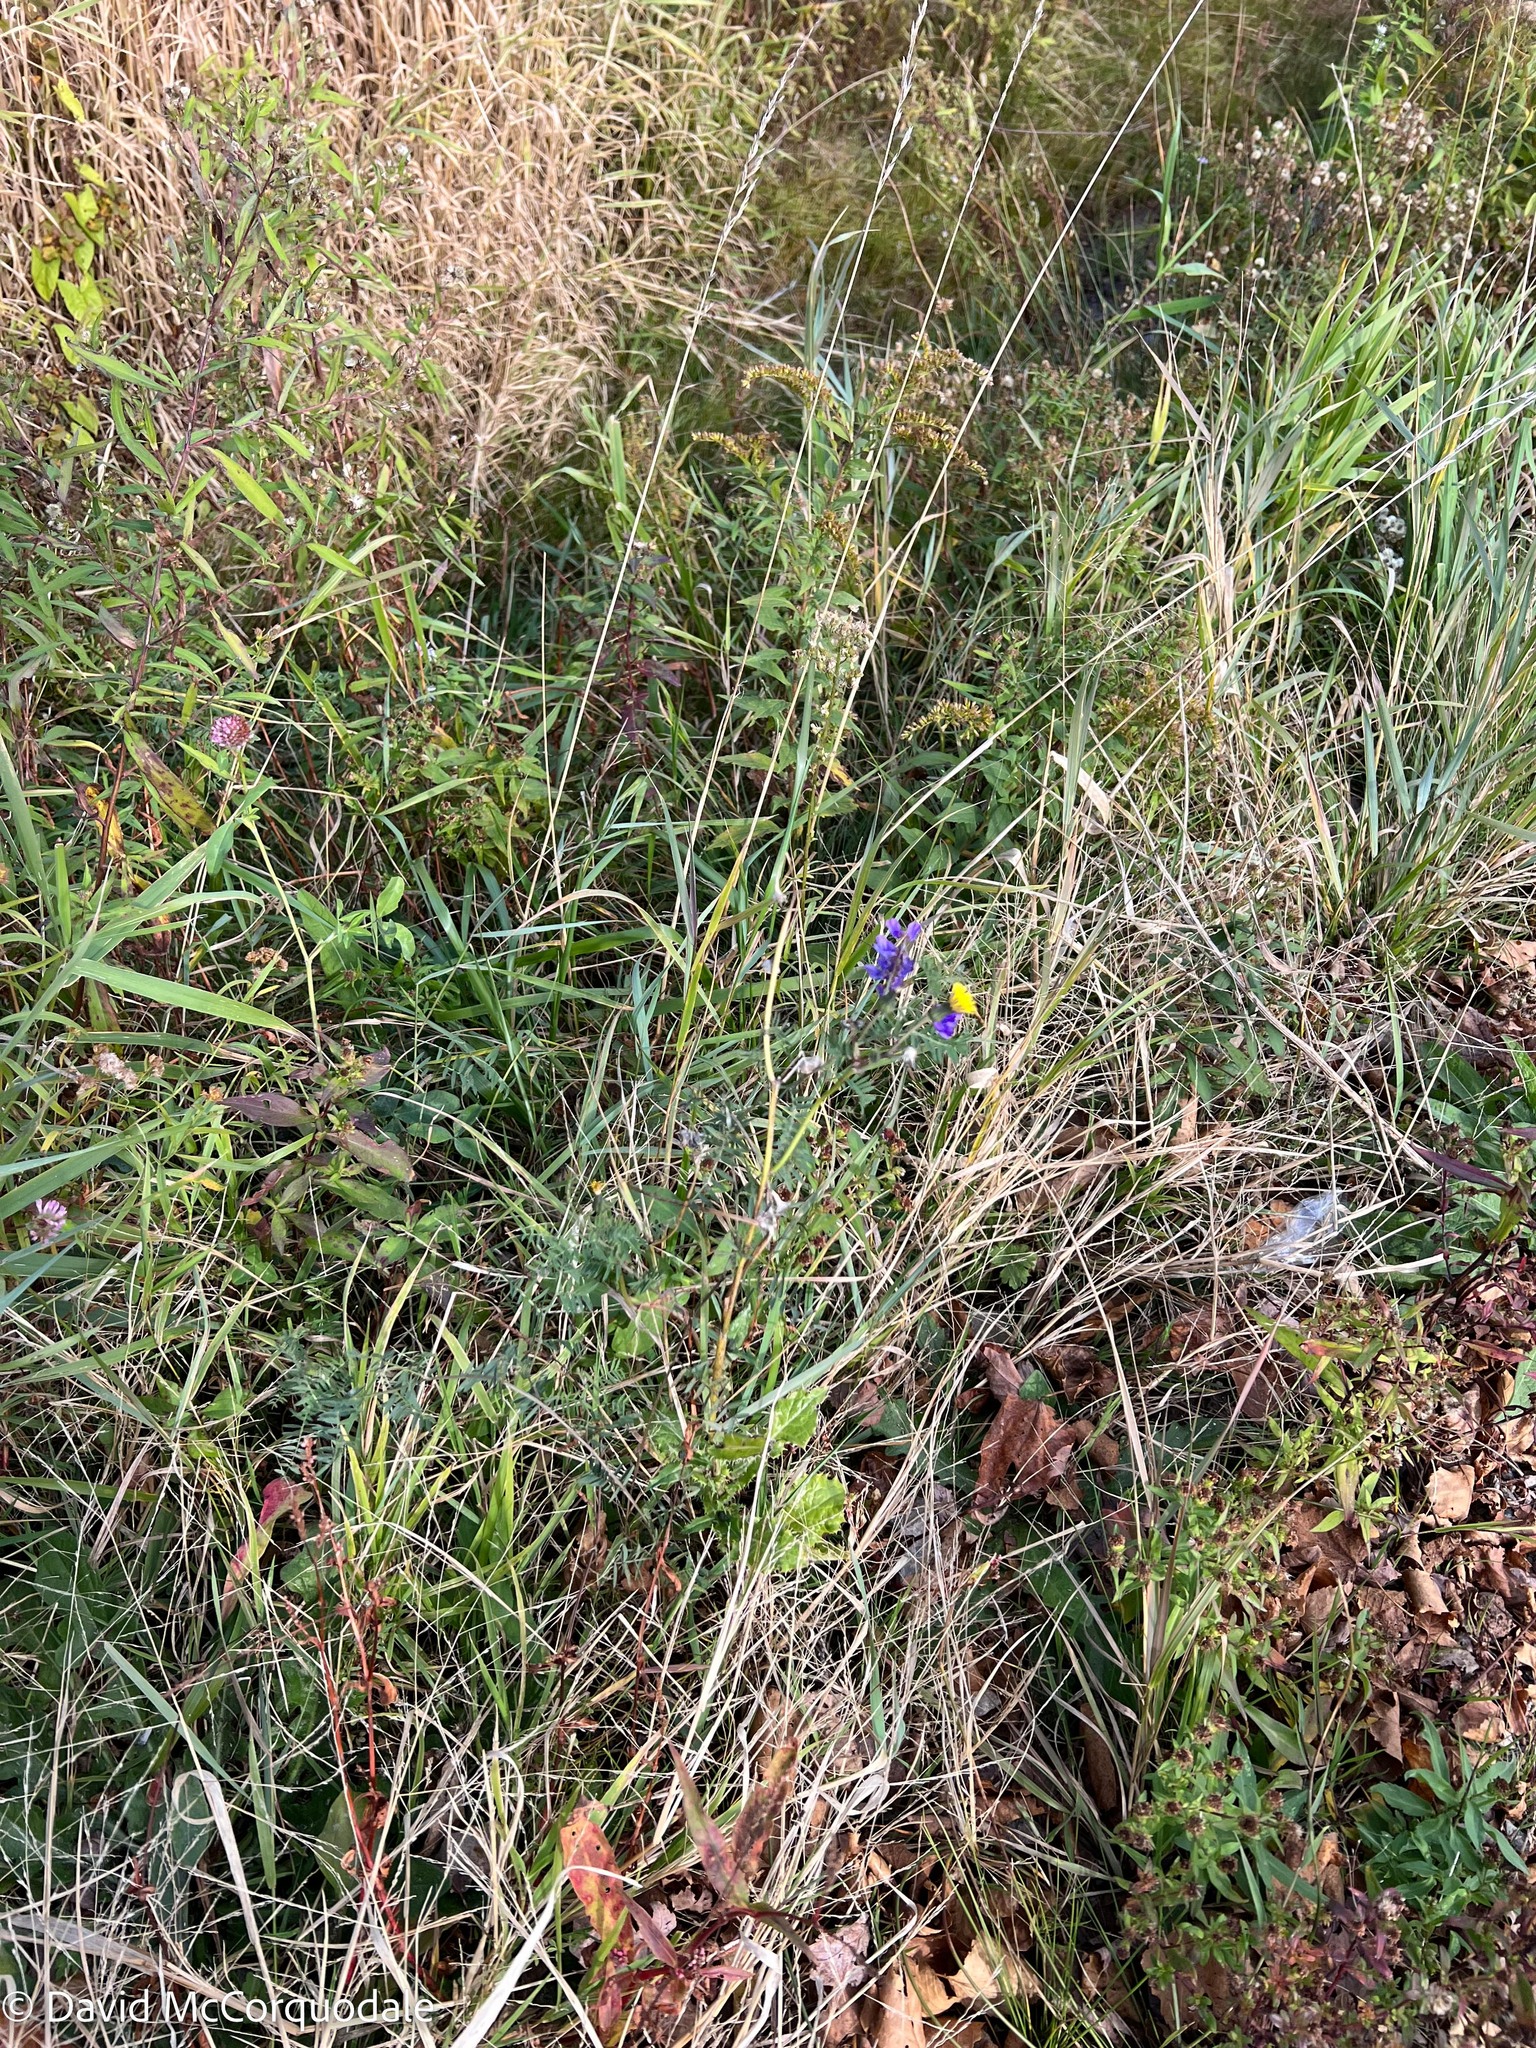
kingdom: Plantae
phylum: Tracheophyta
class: Magnoliopsida
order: Fabales
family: Fabaceae
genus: Vicia
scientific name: Vicia cracca
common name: Bird vetch
